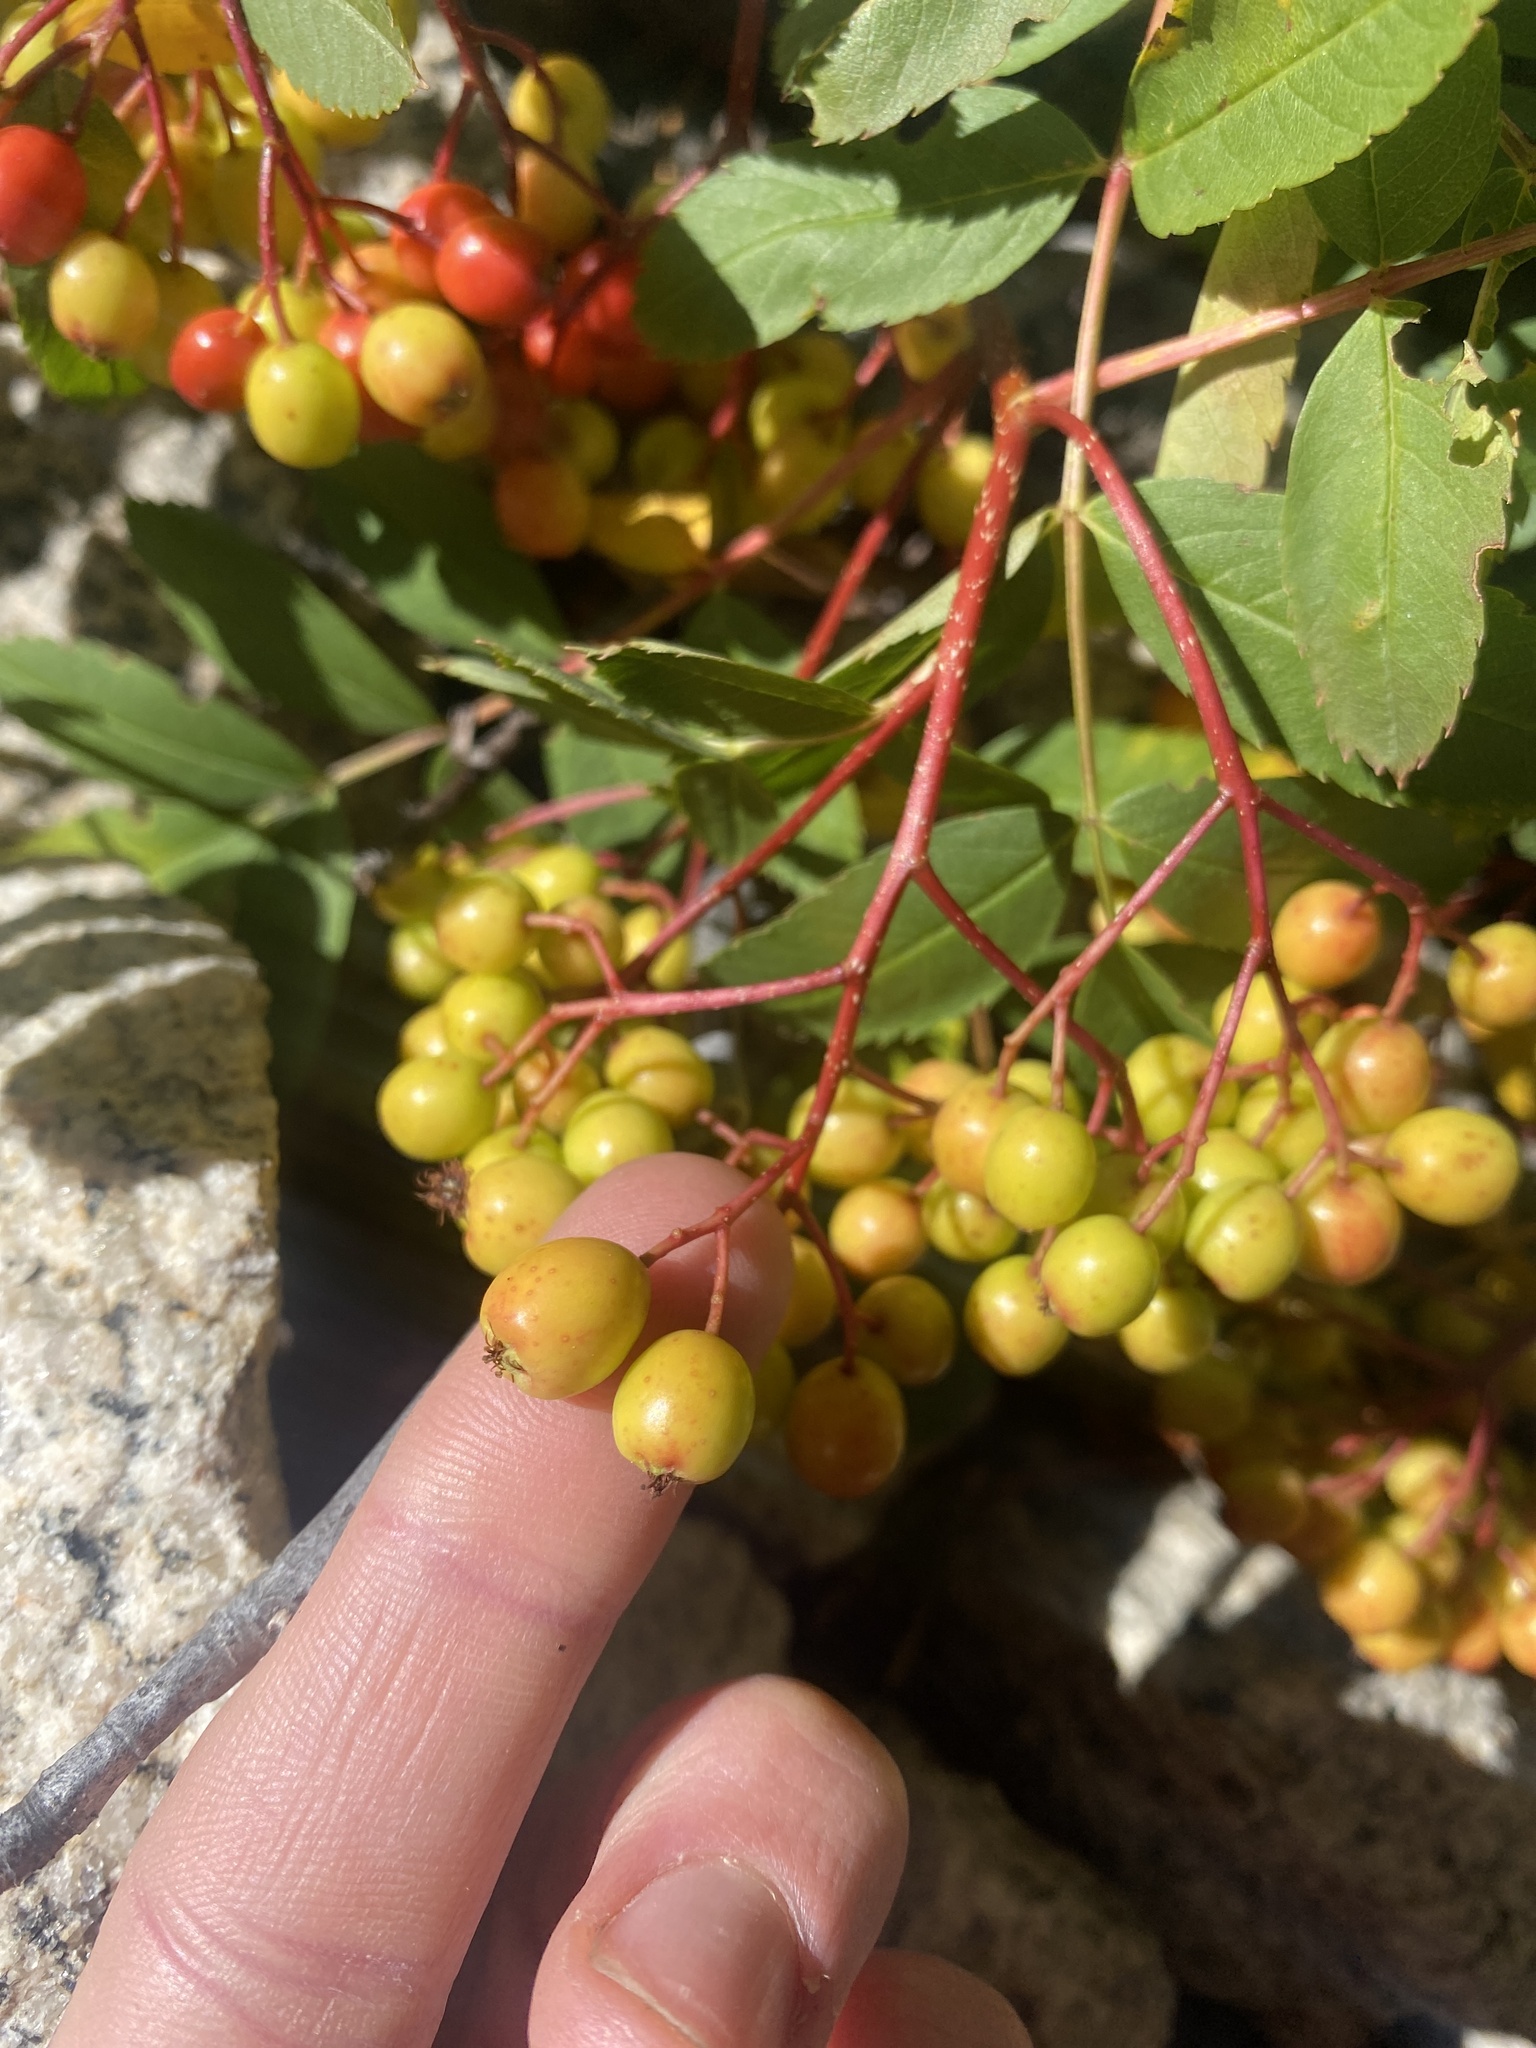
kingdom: Plantae
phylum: Tracheophyta
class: Magnoliopsida
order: Rosales
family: Rosaceae
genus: Sorbus
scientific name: Sorbus californica
